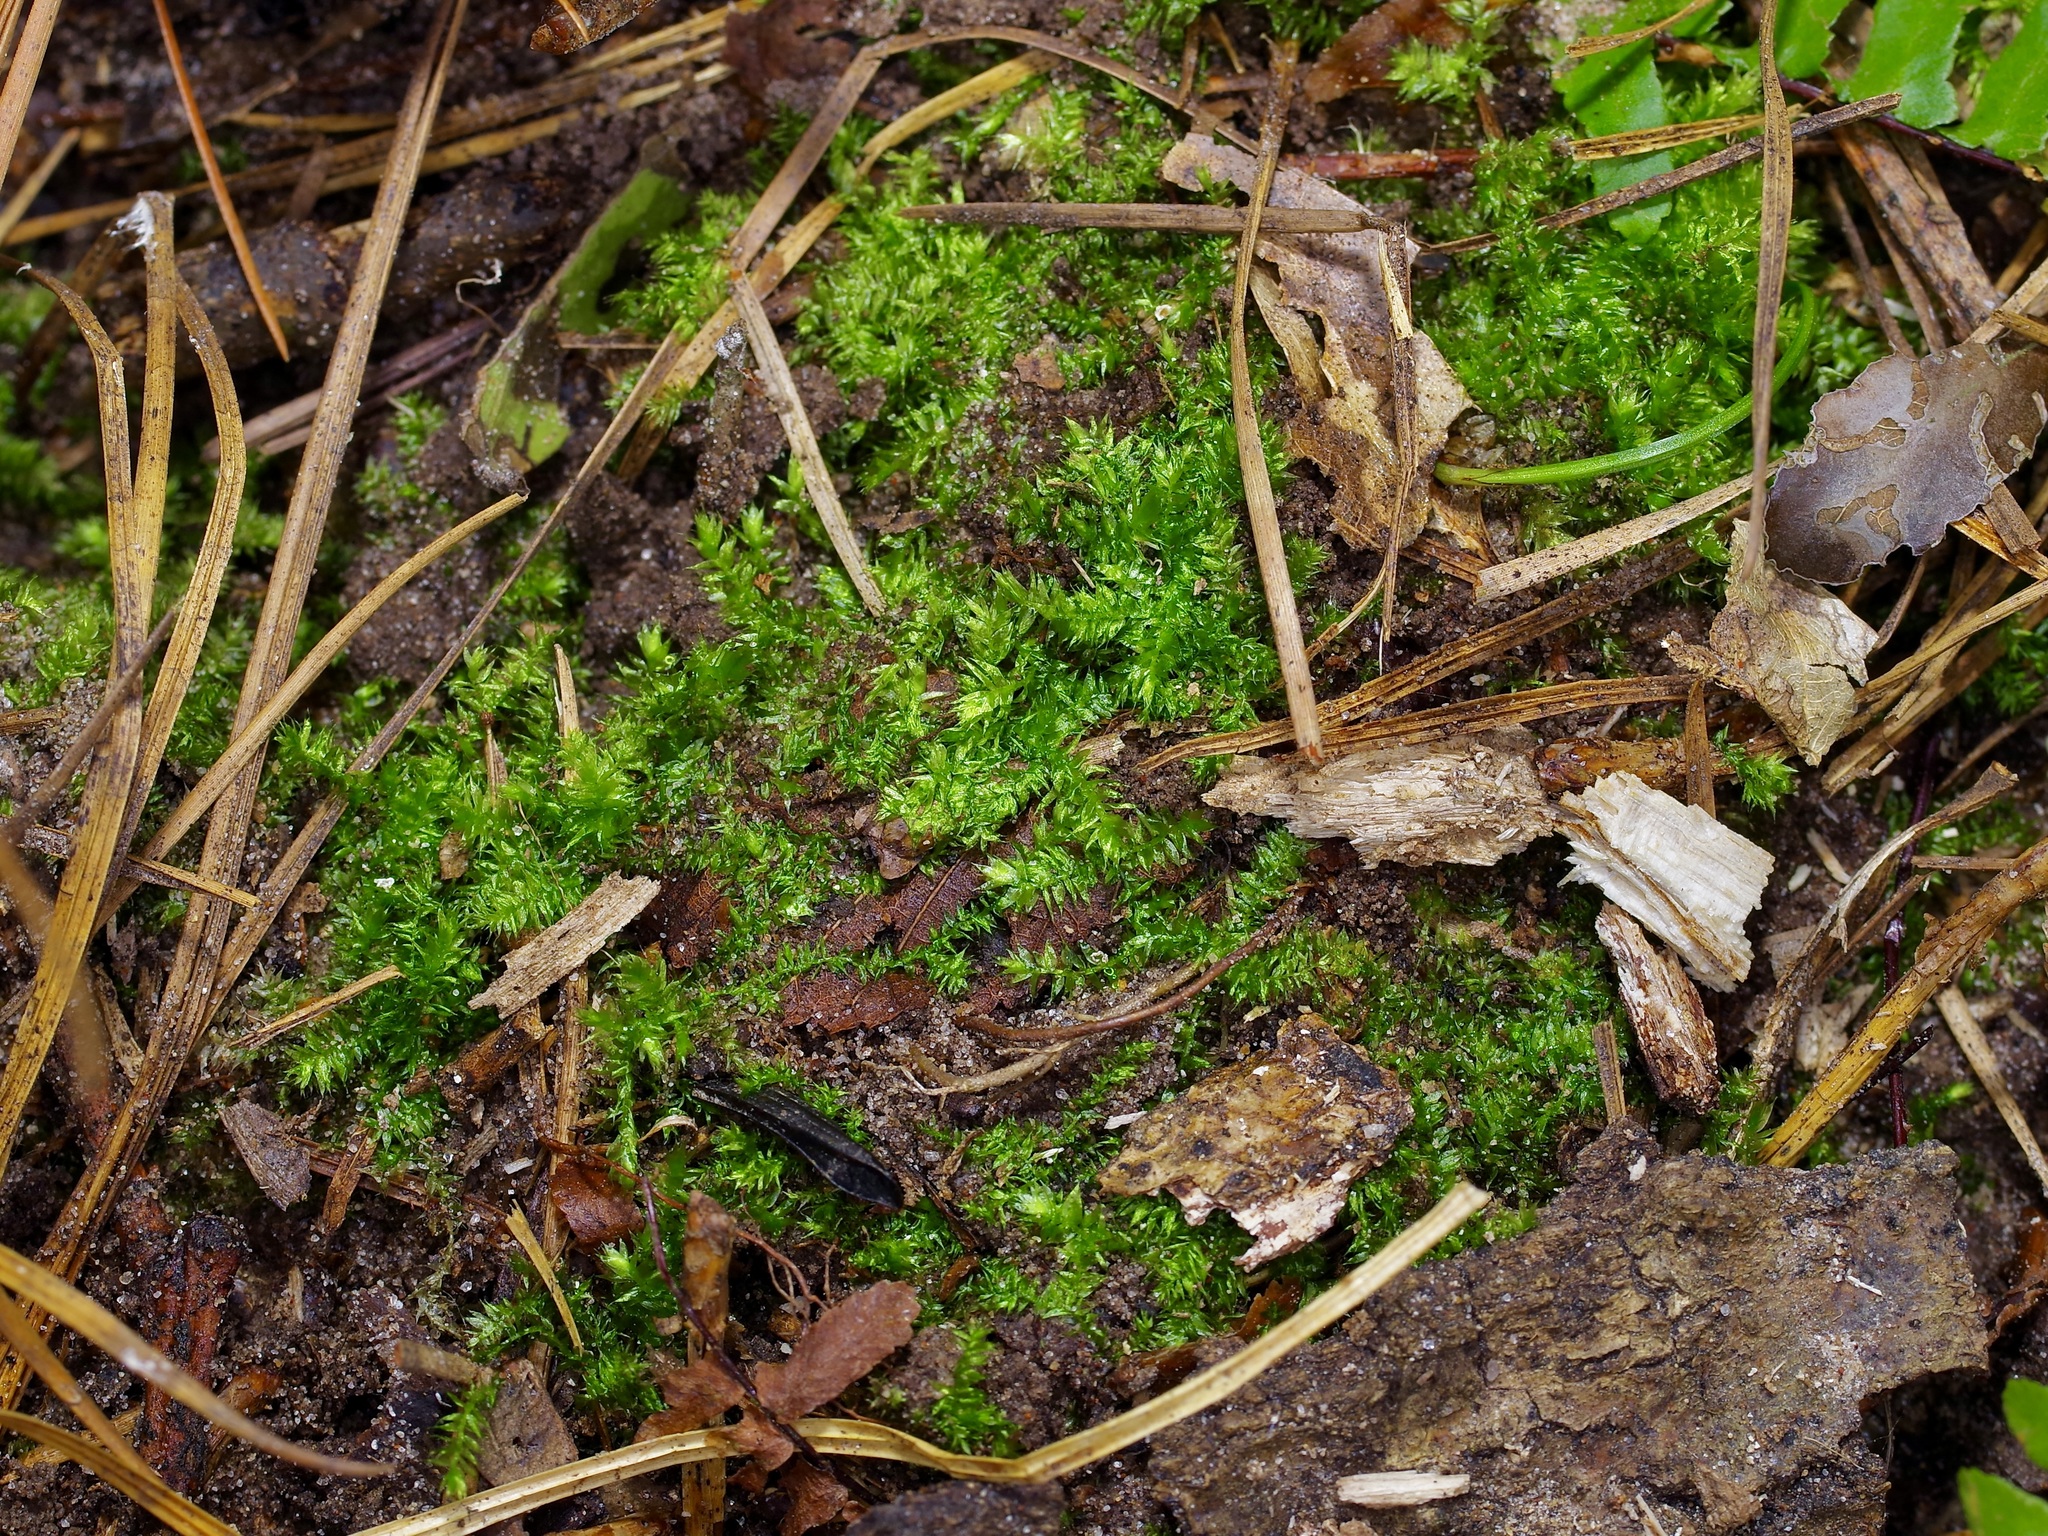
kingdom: Plantae
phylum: Bryophyta
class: Bryopsida
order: Hypnales
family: Brachytheciaceae
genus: Rhynchostegium
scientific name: Rhynchostegium serrulatum
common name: Serrulate-leaved long-beaked moss
